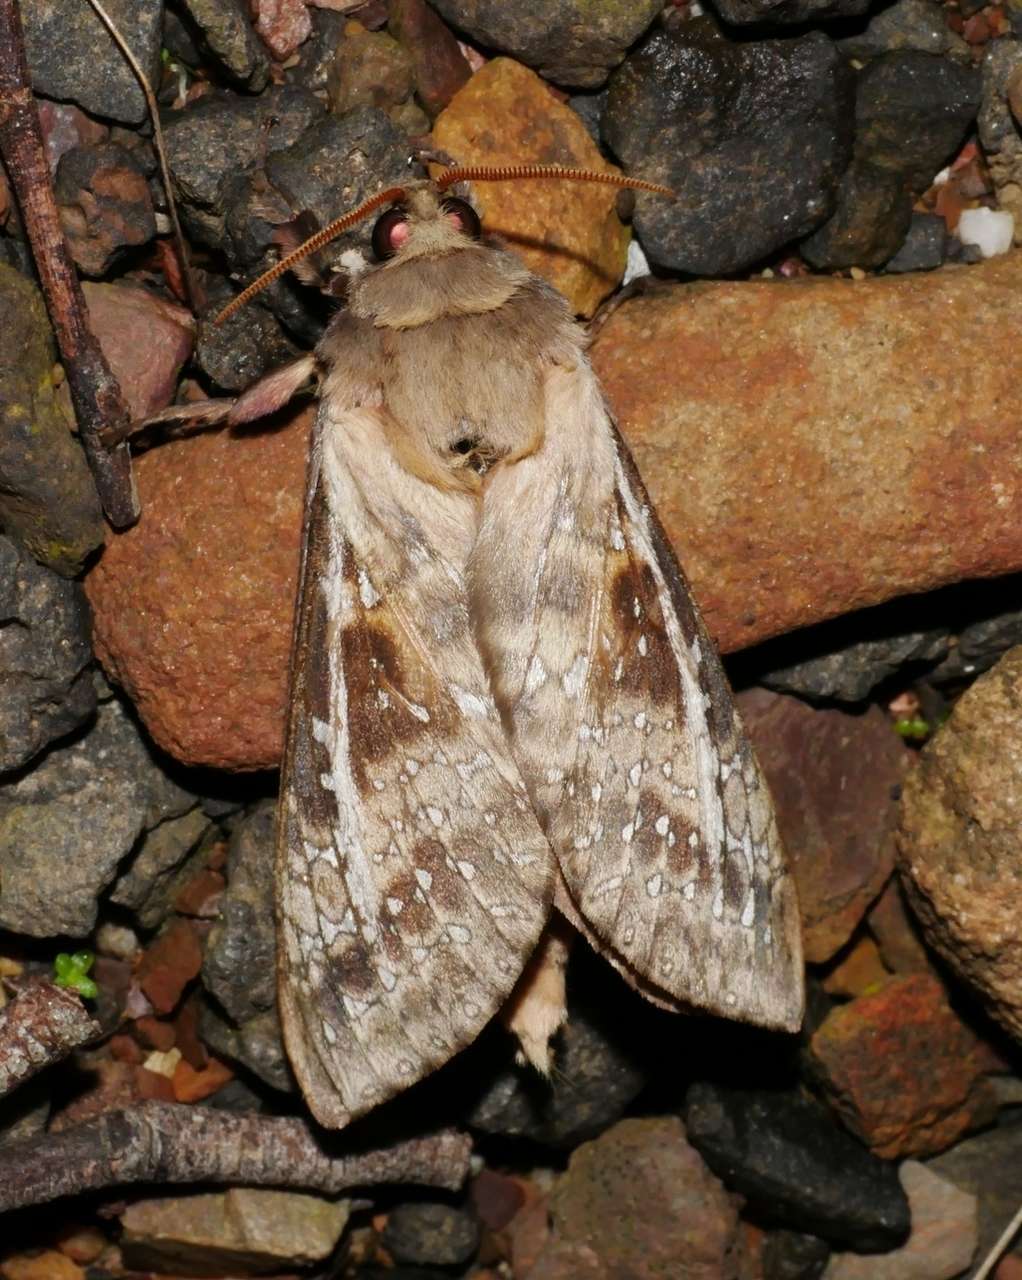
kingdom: Animalia
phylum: Arthropoda
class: Insecta
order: Lepidoptera
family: Hepialidae
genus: Oxycanus
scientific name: Oxycanus australis
